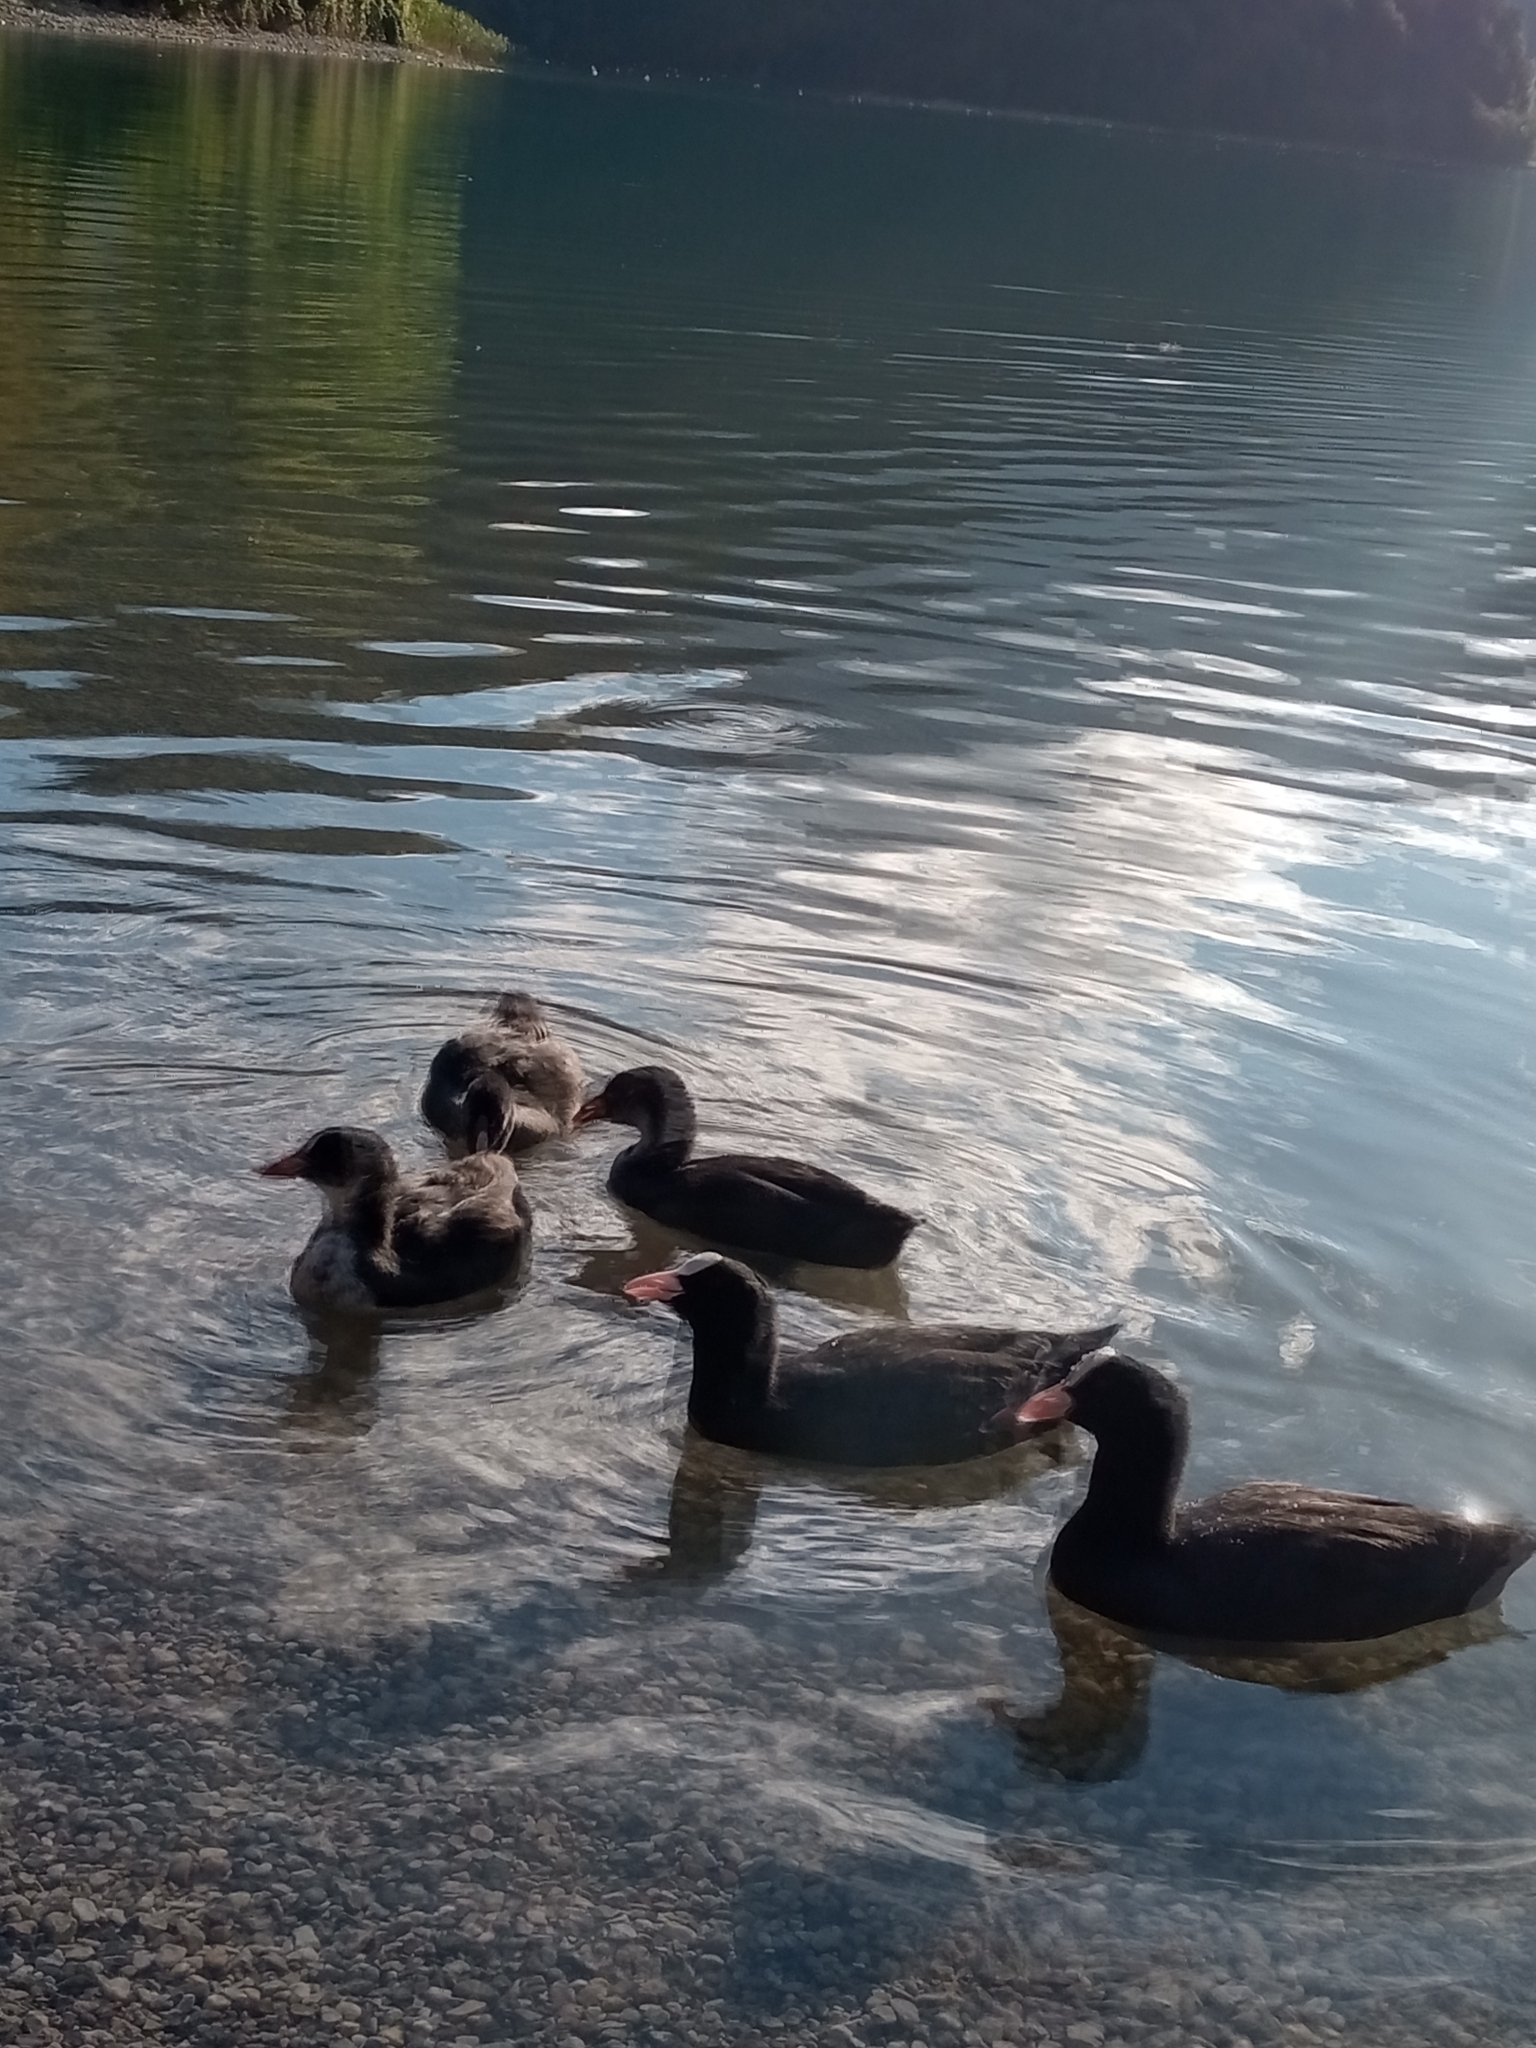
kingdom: Animalia
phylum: Chordata
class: Aves
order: Gruiformes
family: Rallidae
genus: Fulica
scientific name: Fulica atra
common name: Eurasian coot
